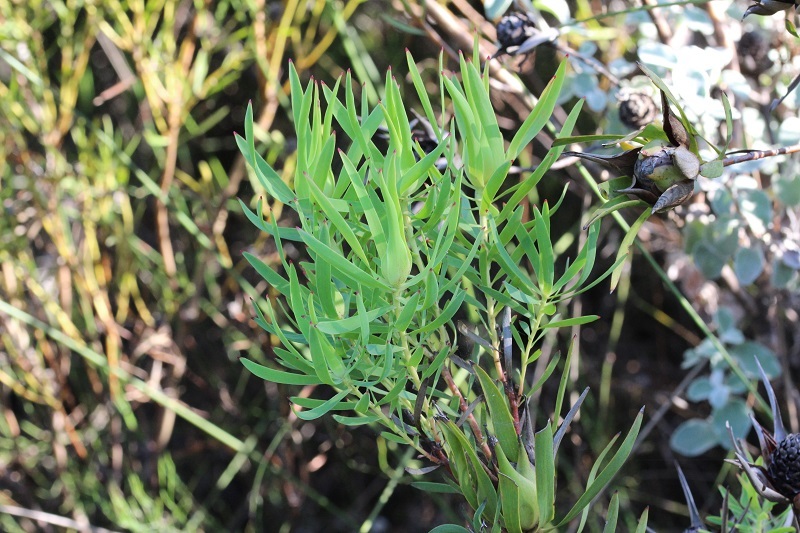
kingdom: Plantae
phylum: Tracheophyta
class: Magnoliopsida
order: Proteales
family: Proteaceae
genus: Leucadendron
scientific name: Leucadendron salignum
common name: Common sunshine conebush
